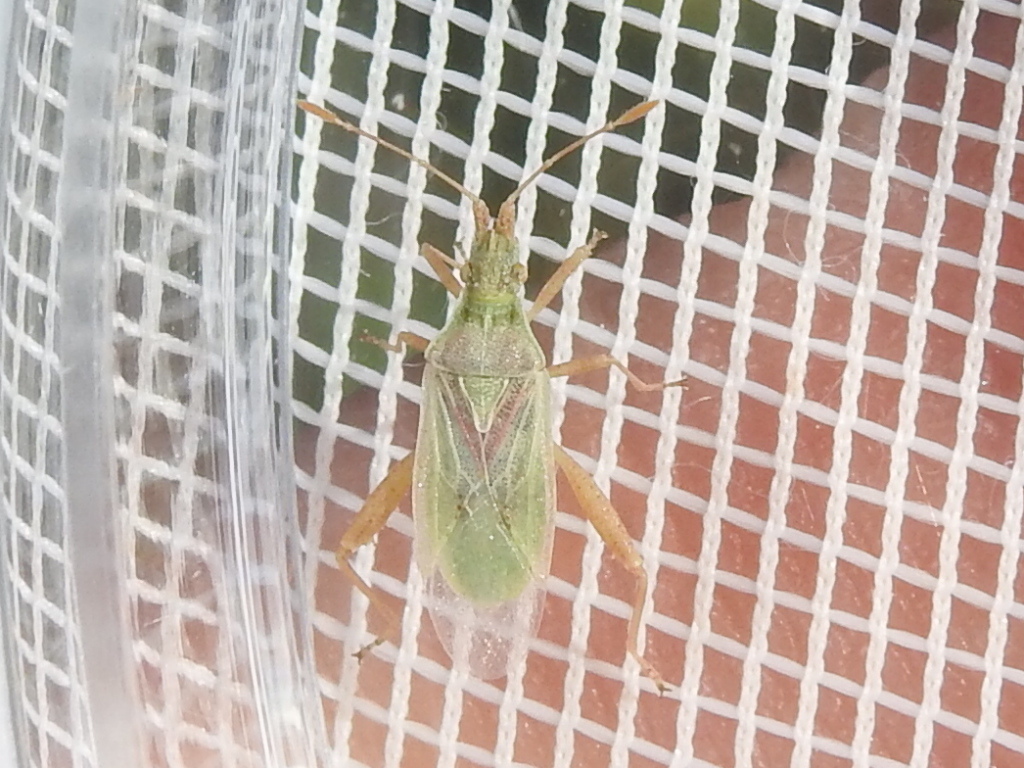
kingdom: Animalia
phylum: Arthropoda
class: Insecta
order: Hemiptera
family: Rhopalidae
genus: Harmostes
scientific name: Harmostes reflexulus
